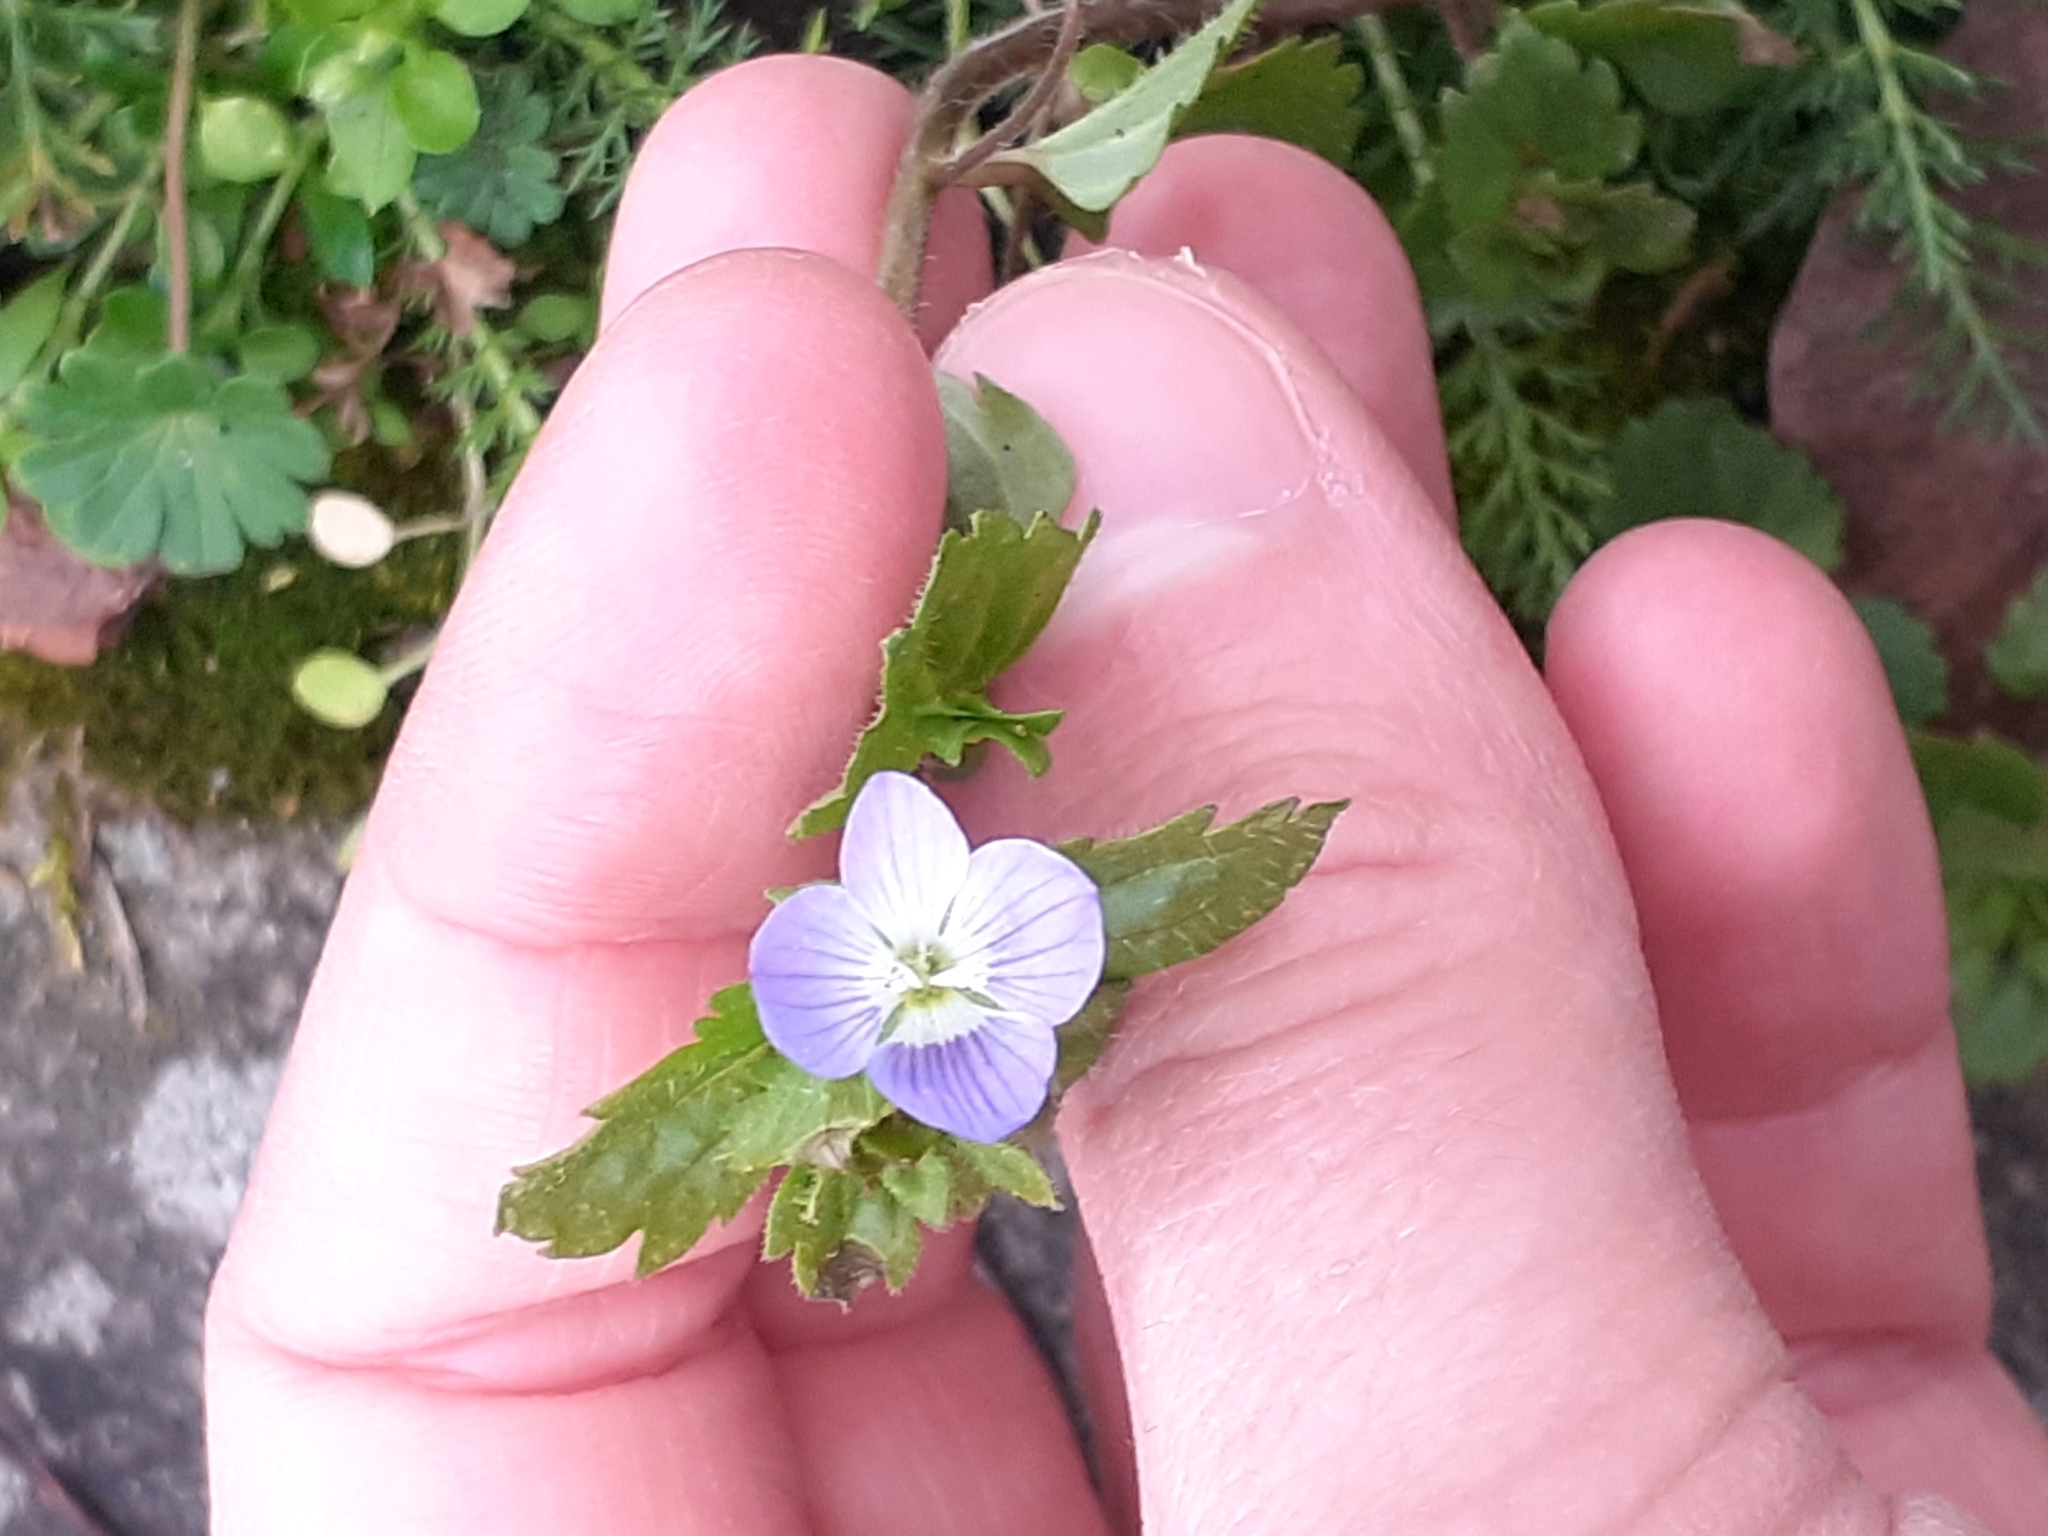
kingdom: Plantae
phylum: Tracheophyta
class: Magnoliopsida
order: Lamiales
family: Plantaginaceae
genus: Veronica
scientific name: Veronica persica
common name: Common field-speedwell
